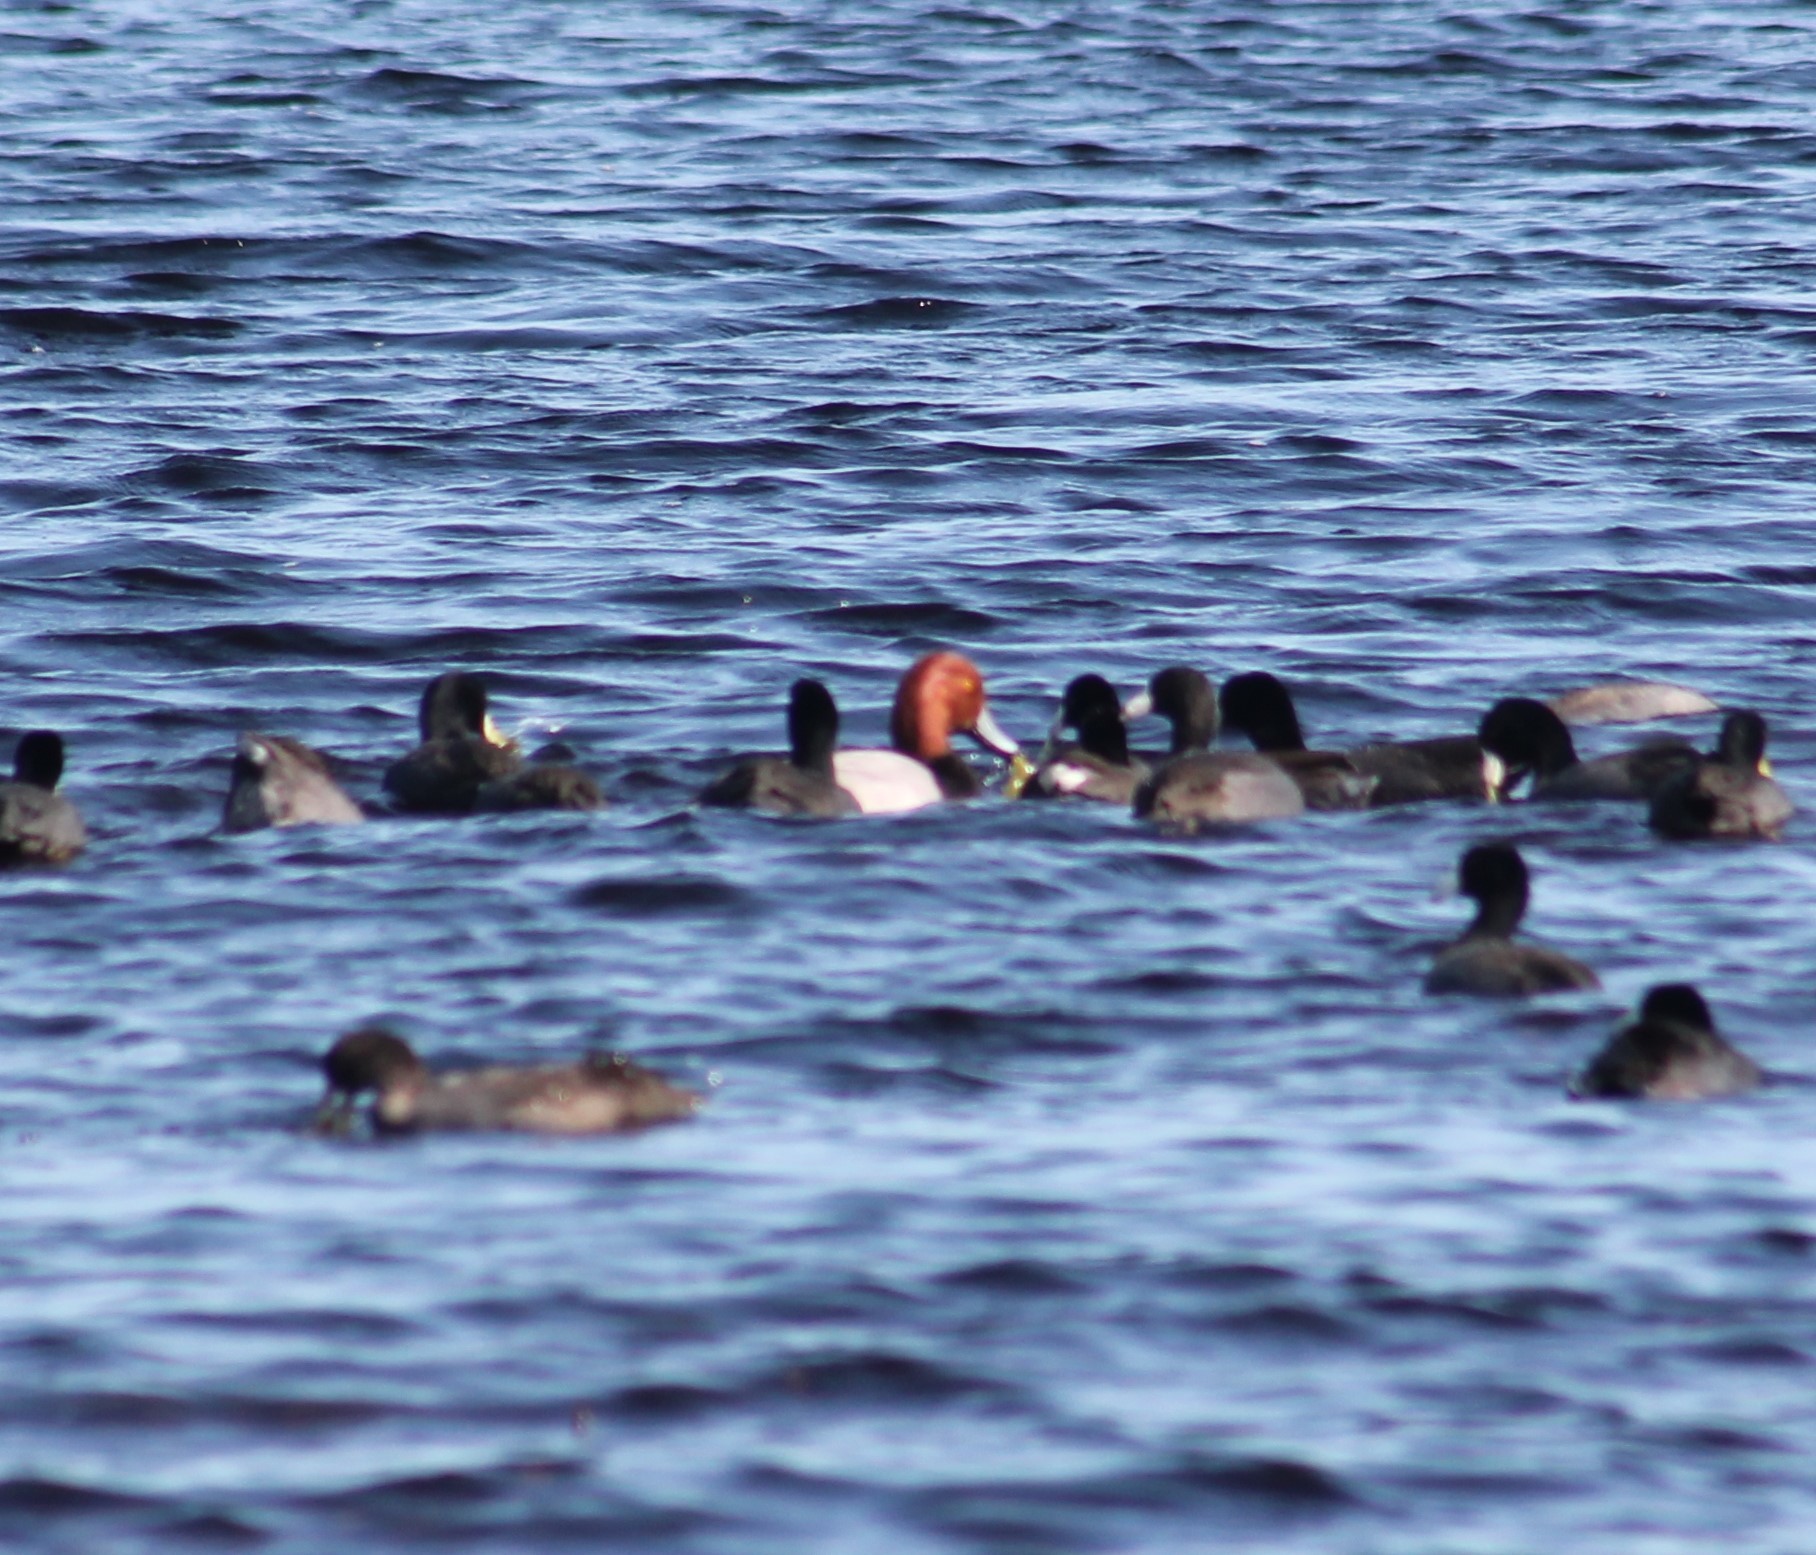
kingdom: Animalia
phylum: Chordata
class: Aves
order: Anseriformes
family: Anatidae
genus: Aythya
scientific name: Aythya americana
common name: Redhead
